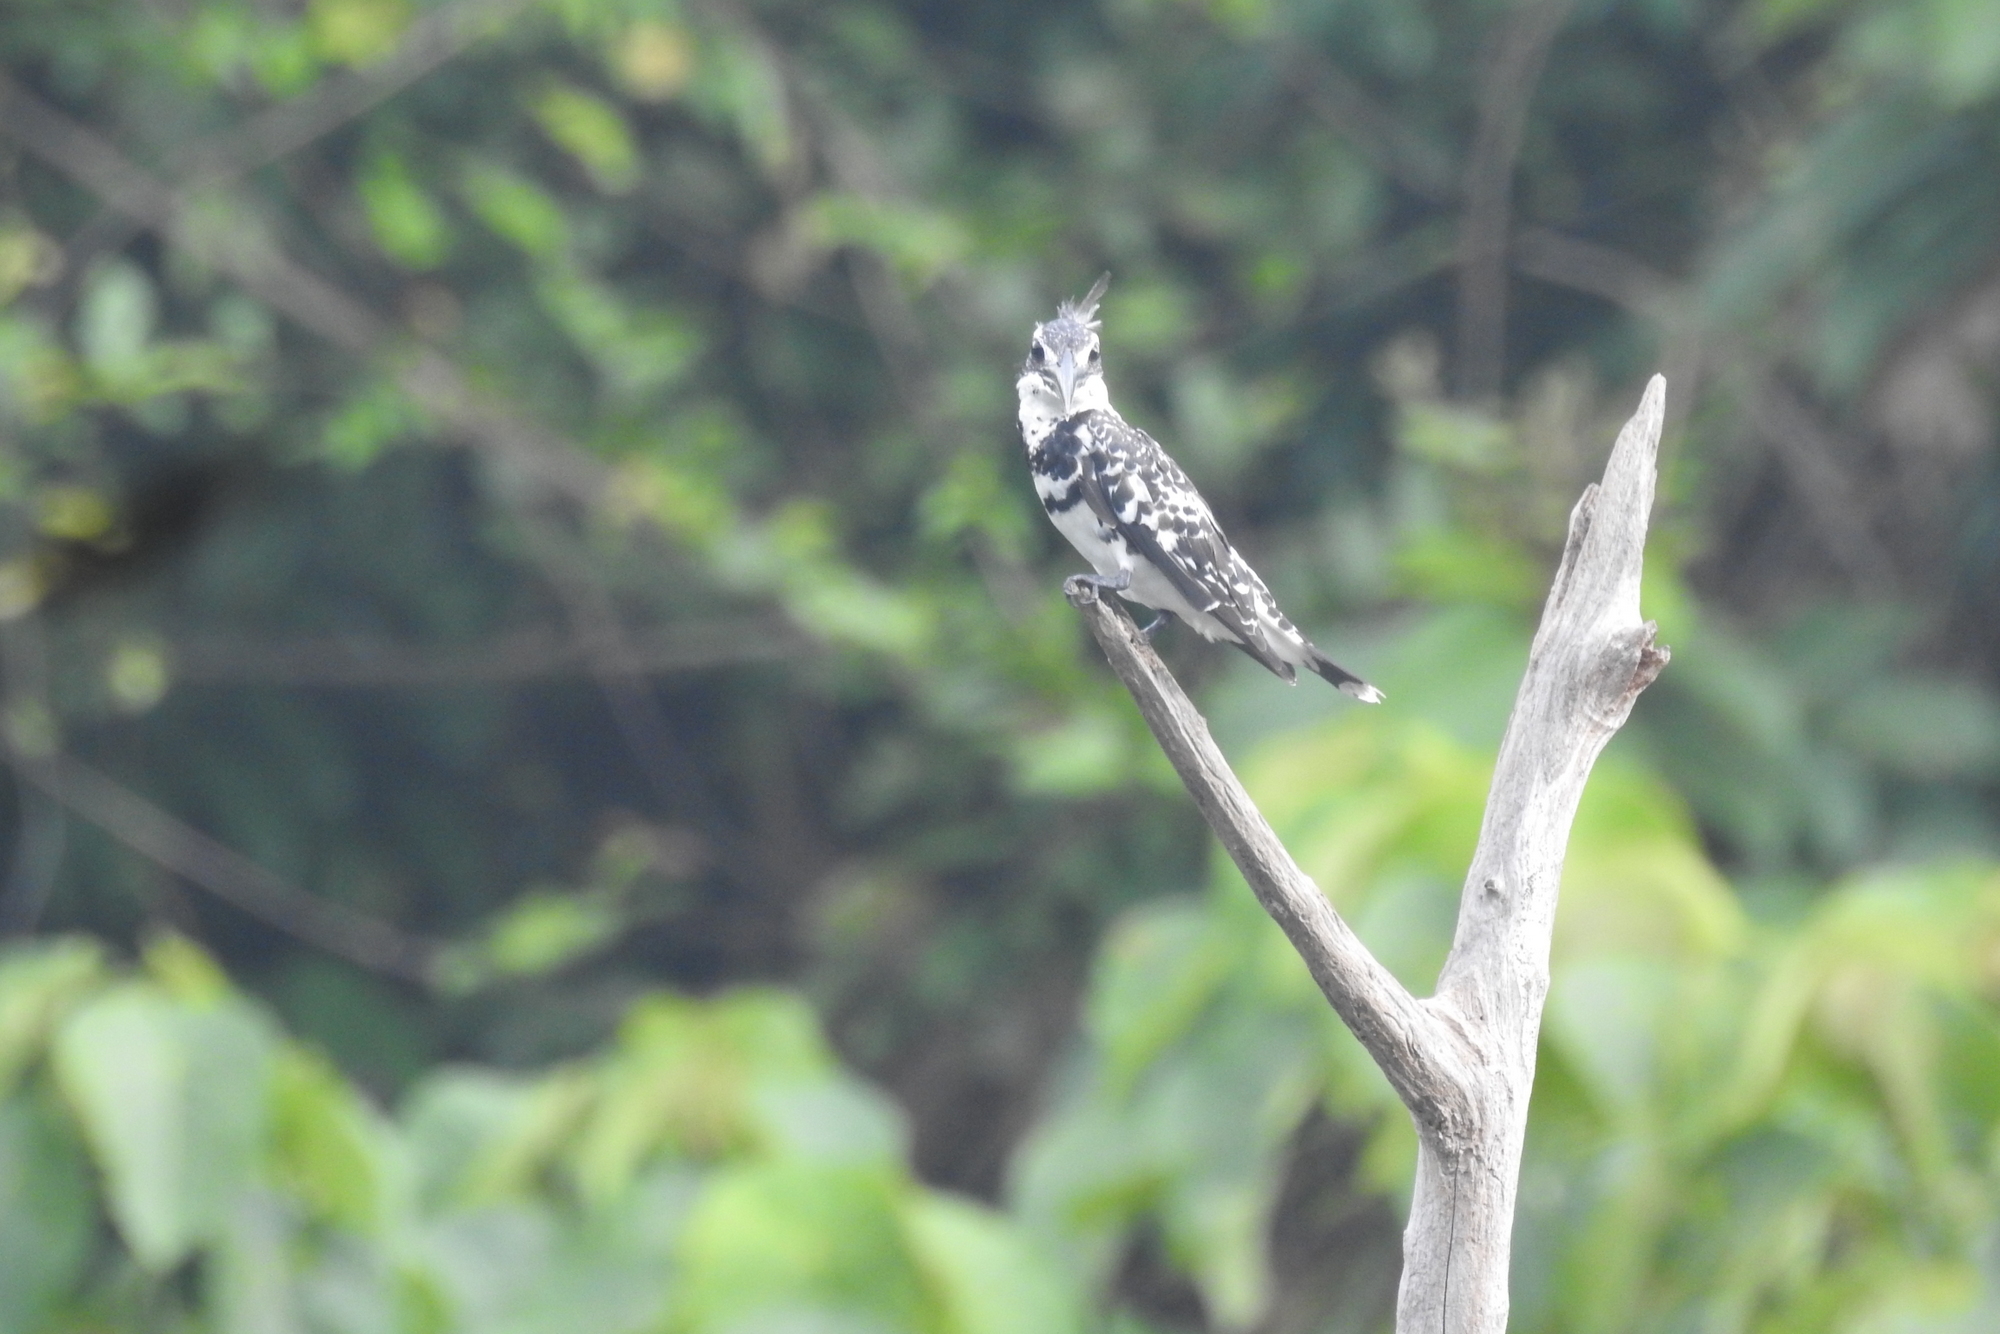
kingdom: Animalia
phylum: Chordata
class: Aves
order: Coraciiformes
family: Alcedinidae
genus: Ceryle
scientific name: Ceryle rudis
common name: Pied kingfisher
